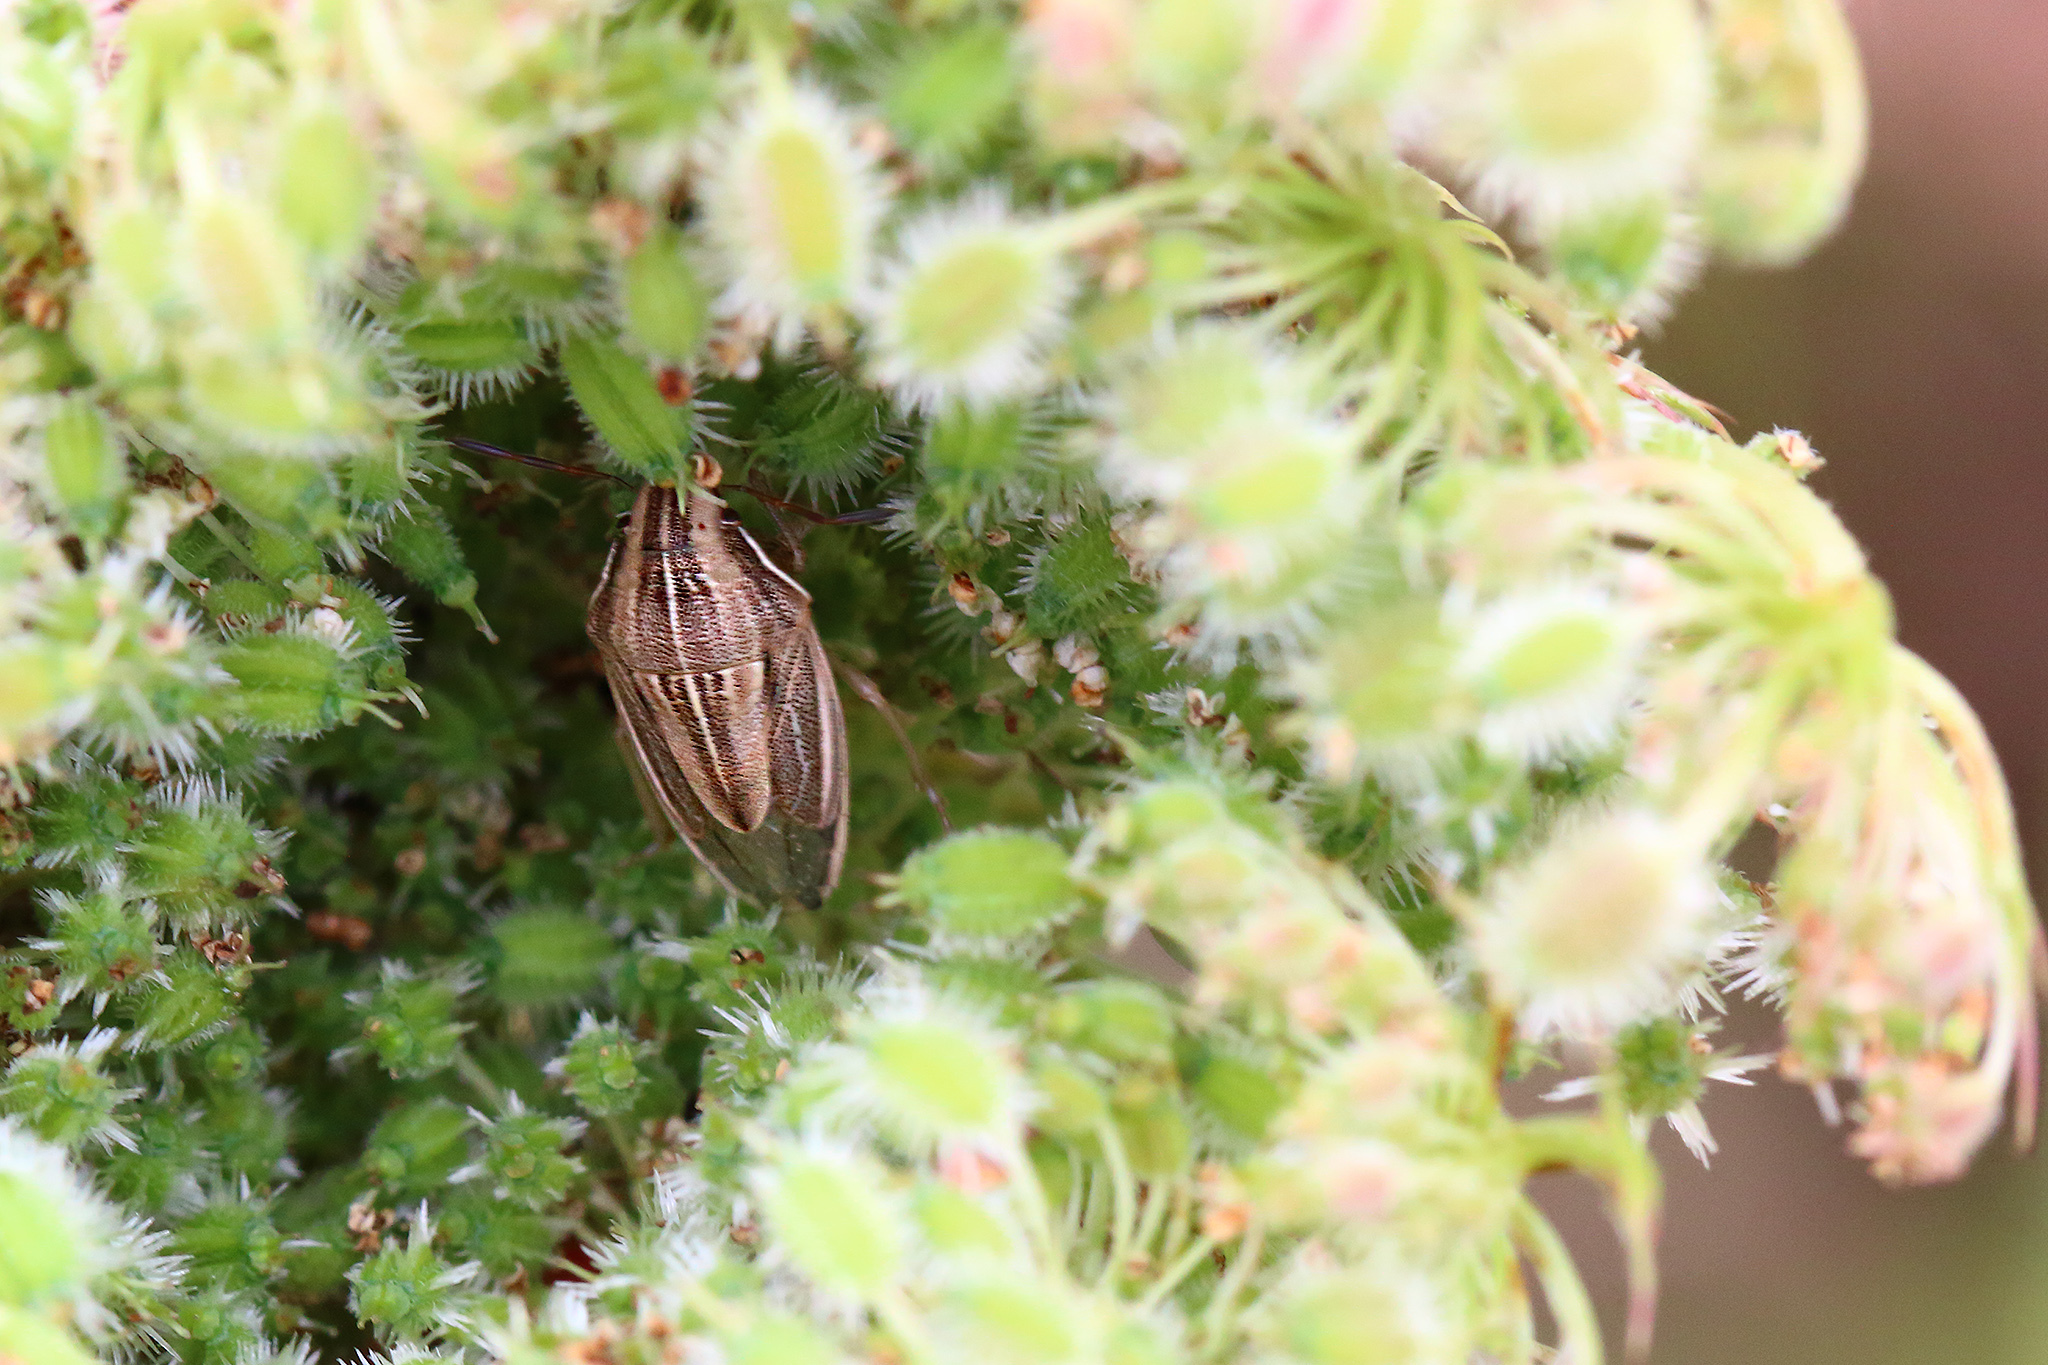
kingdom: Animalia
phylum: Arthropoda
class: Insecta
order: Hemiptera
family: Pentatomidae
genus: Aelia
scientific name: Aelia acuminata
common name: Bishop's mitre
